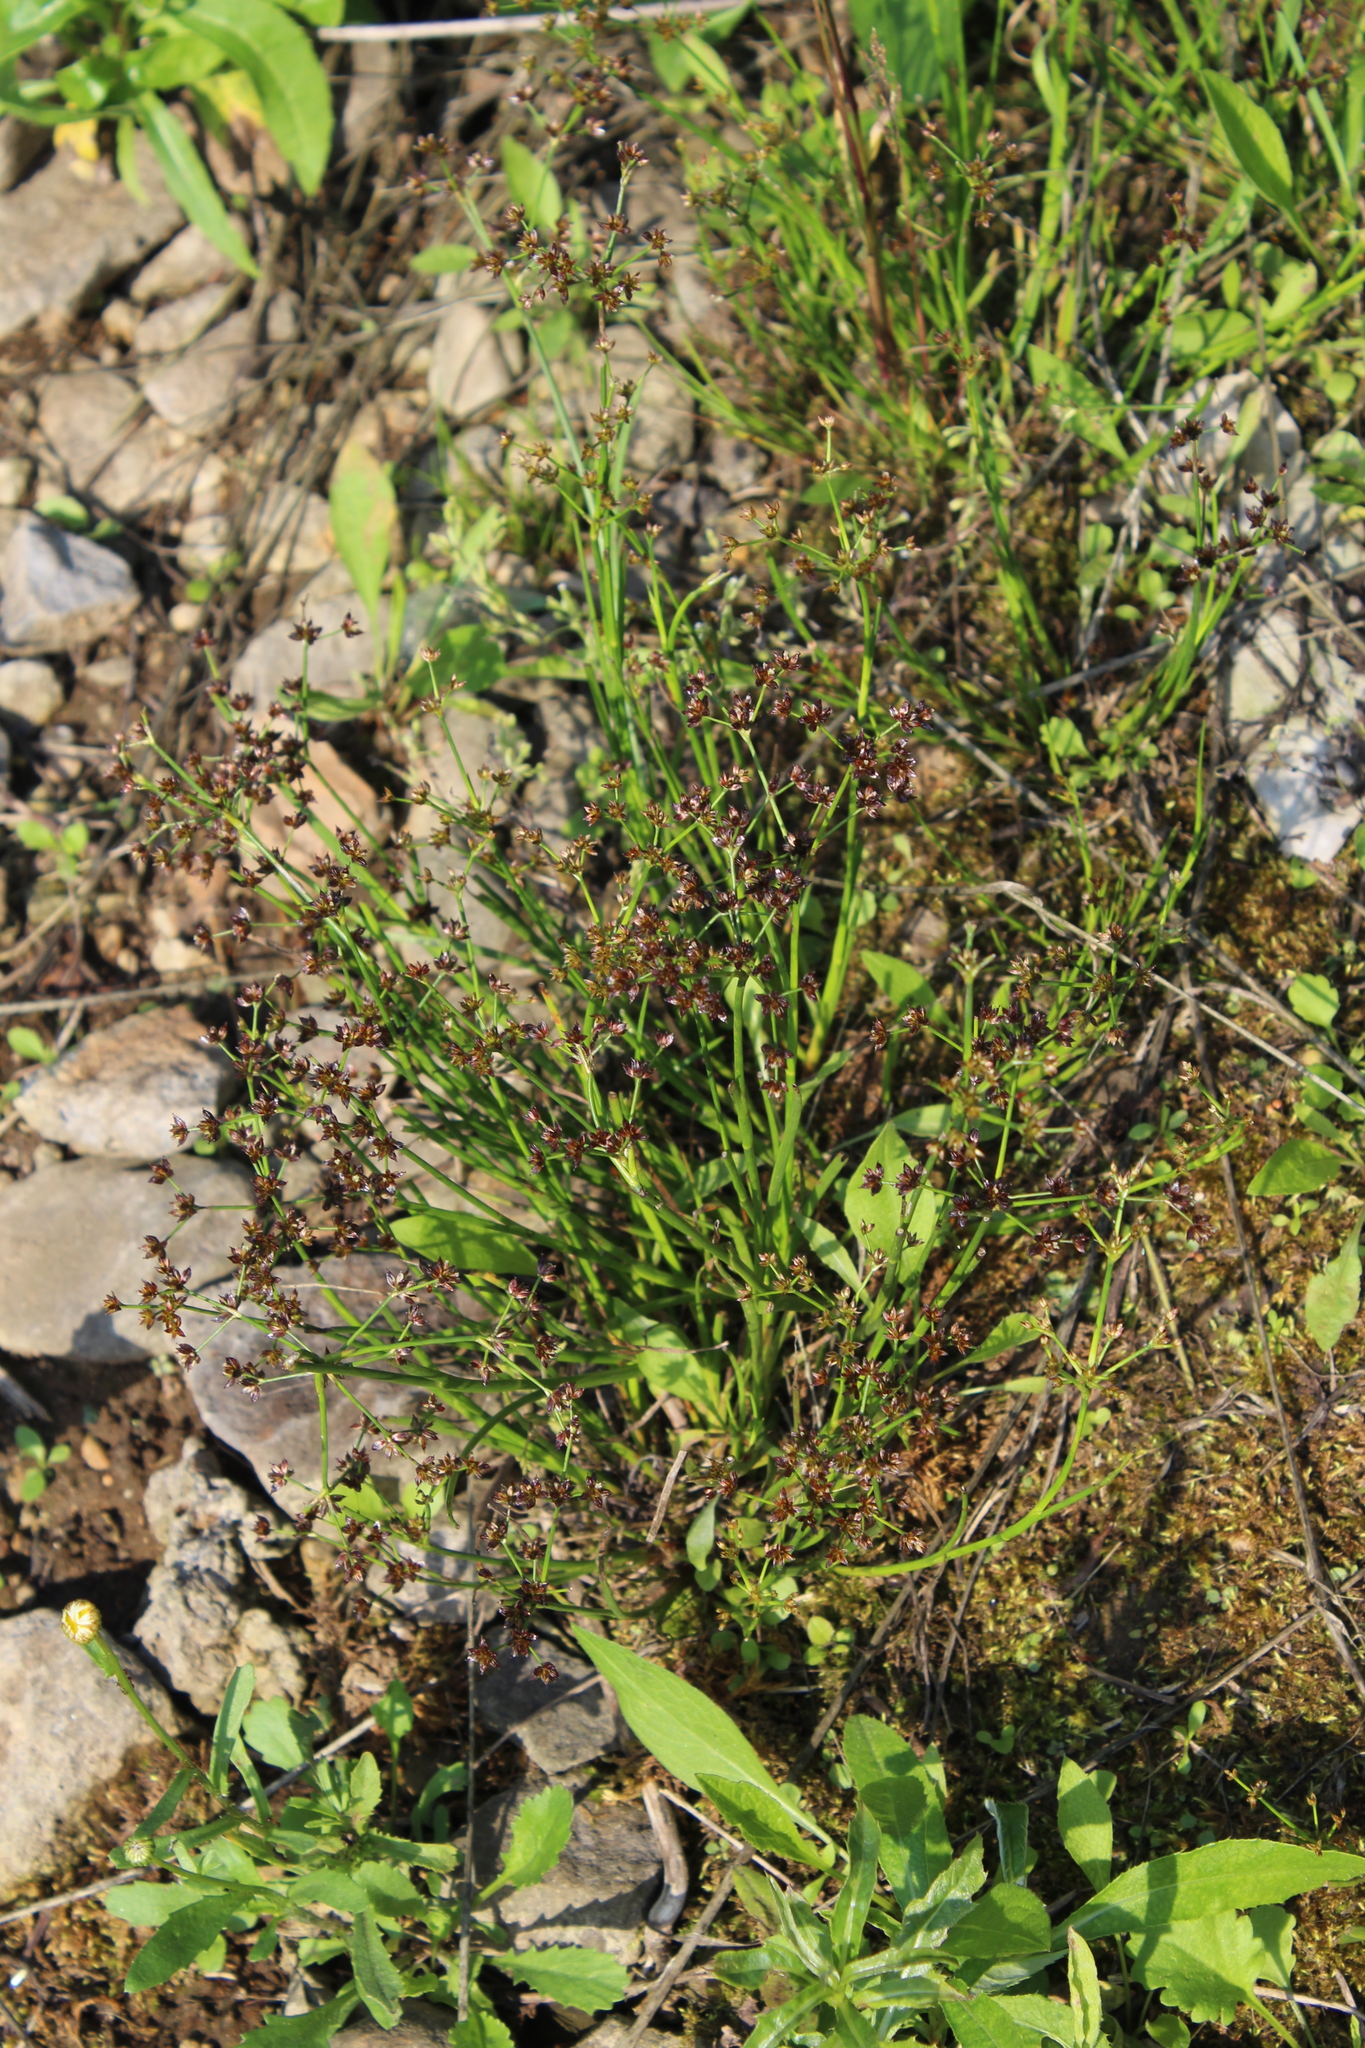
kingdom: Plantae
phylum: Tracheophyta
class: Liliopsida
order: Poales
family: Juncaceae
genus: Juncus
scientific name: Juncus articulatus
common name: Jointed rush
